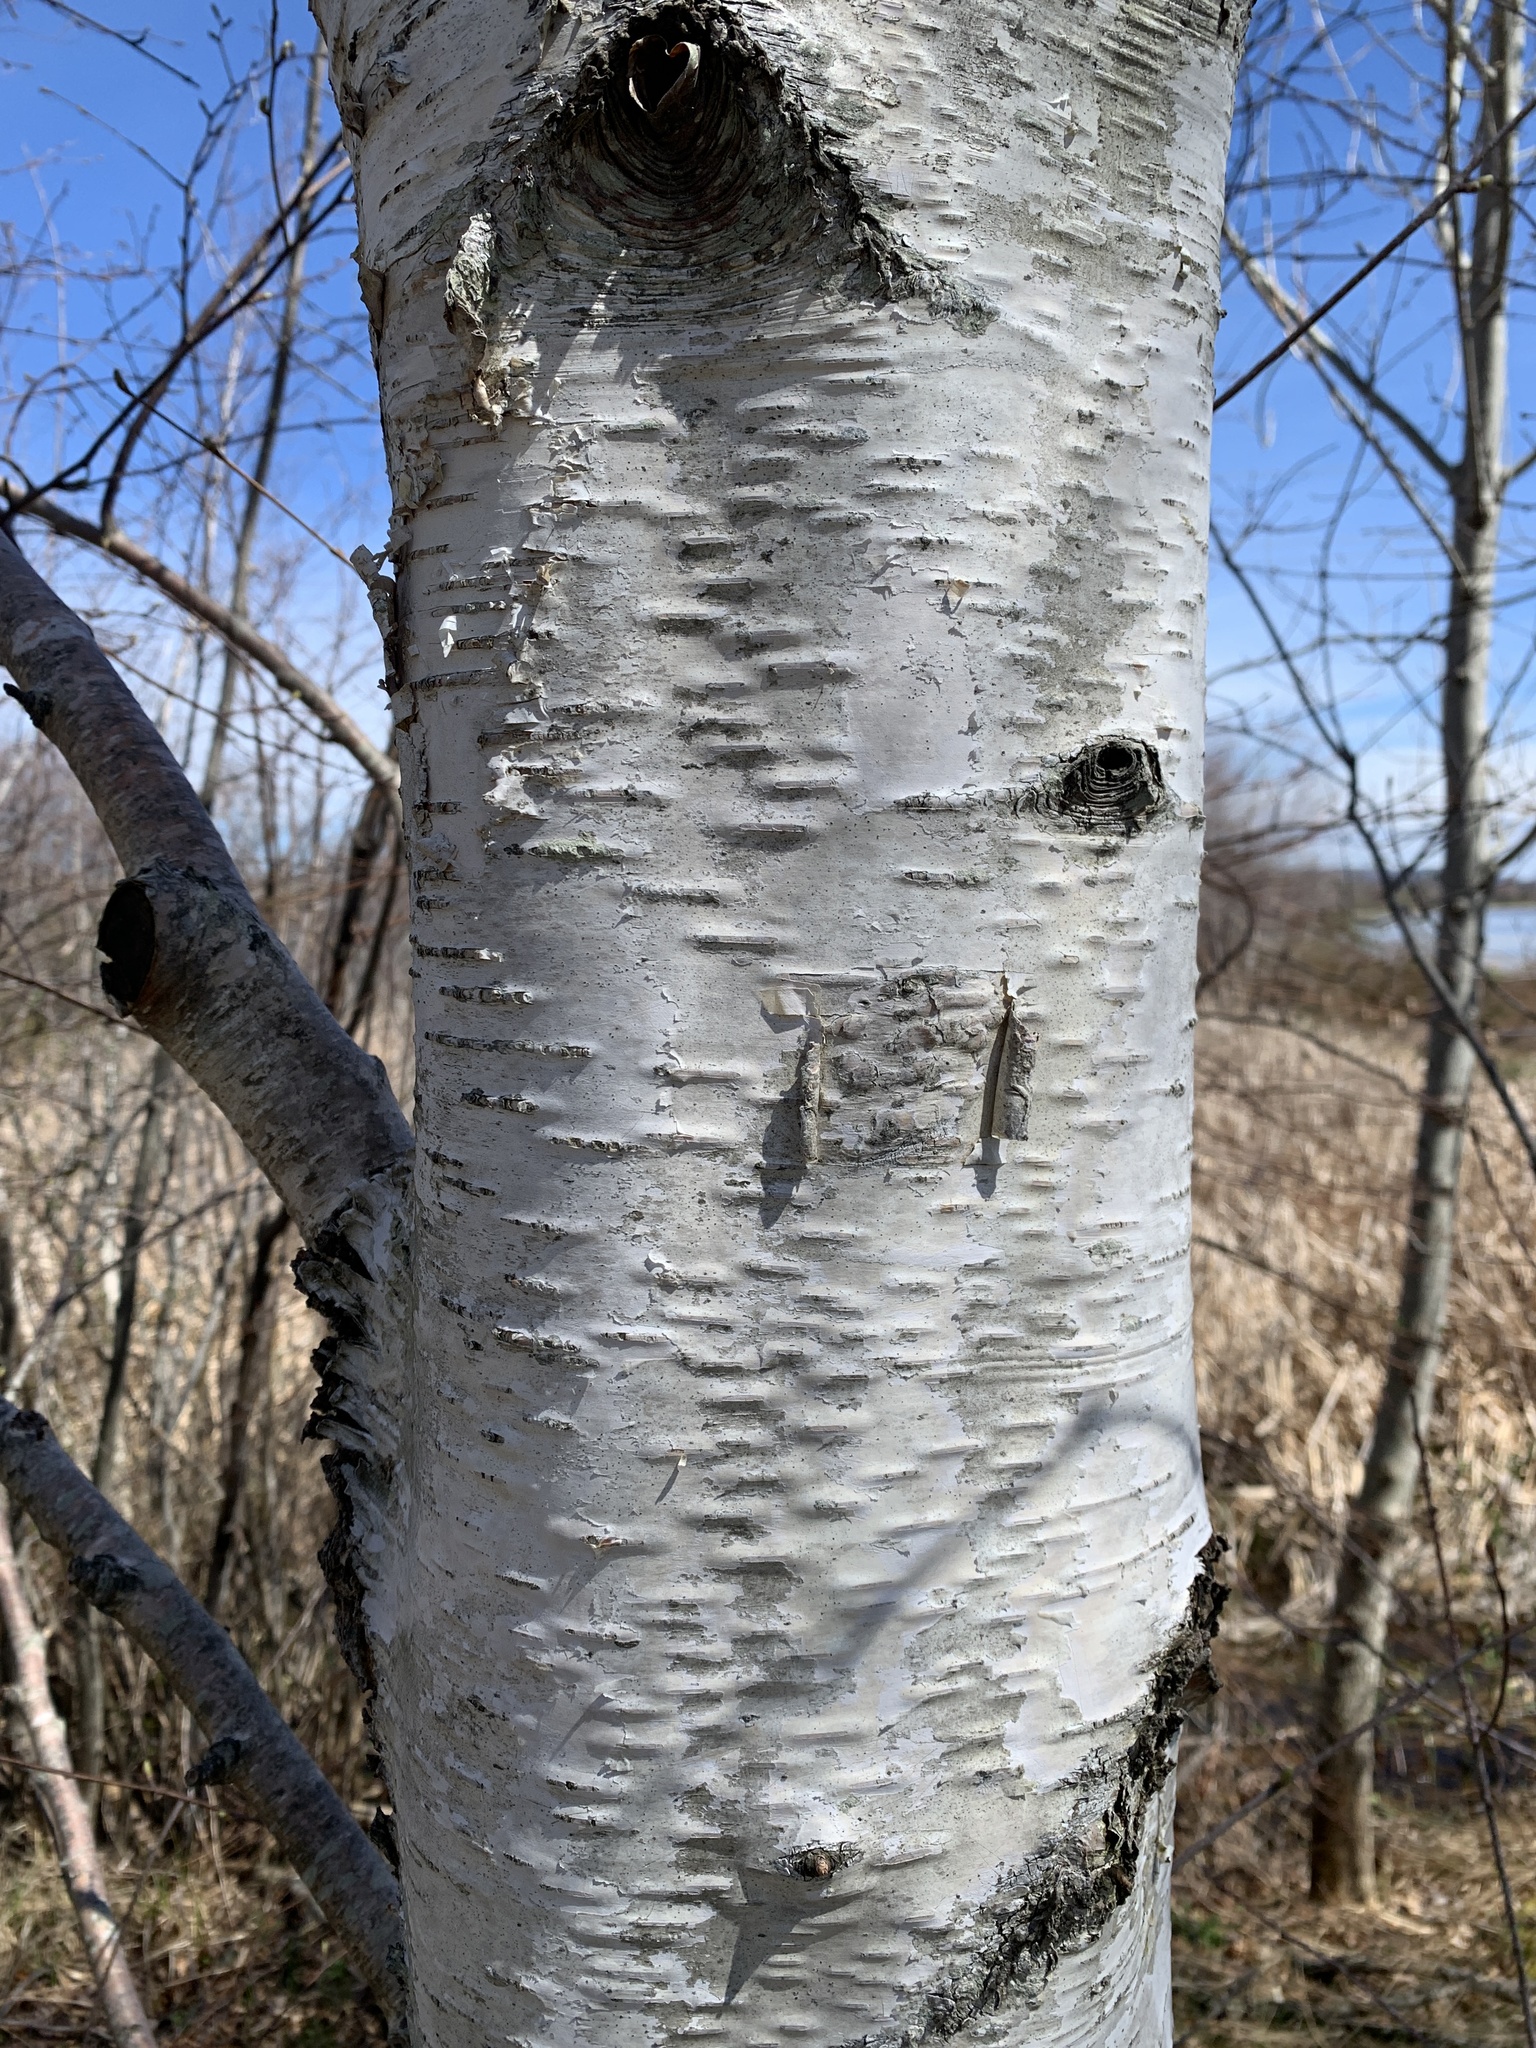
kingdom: Plantae
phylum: Tracheophyta
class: Magnoliopsida
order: Fagales
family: Betulaceae
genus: Betula
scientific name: Betula papyrifera
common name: Paper birch
